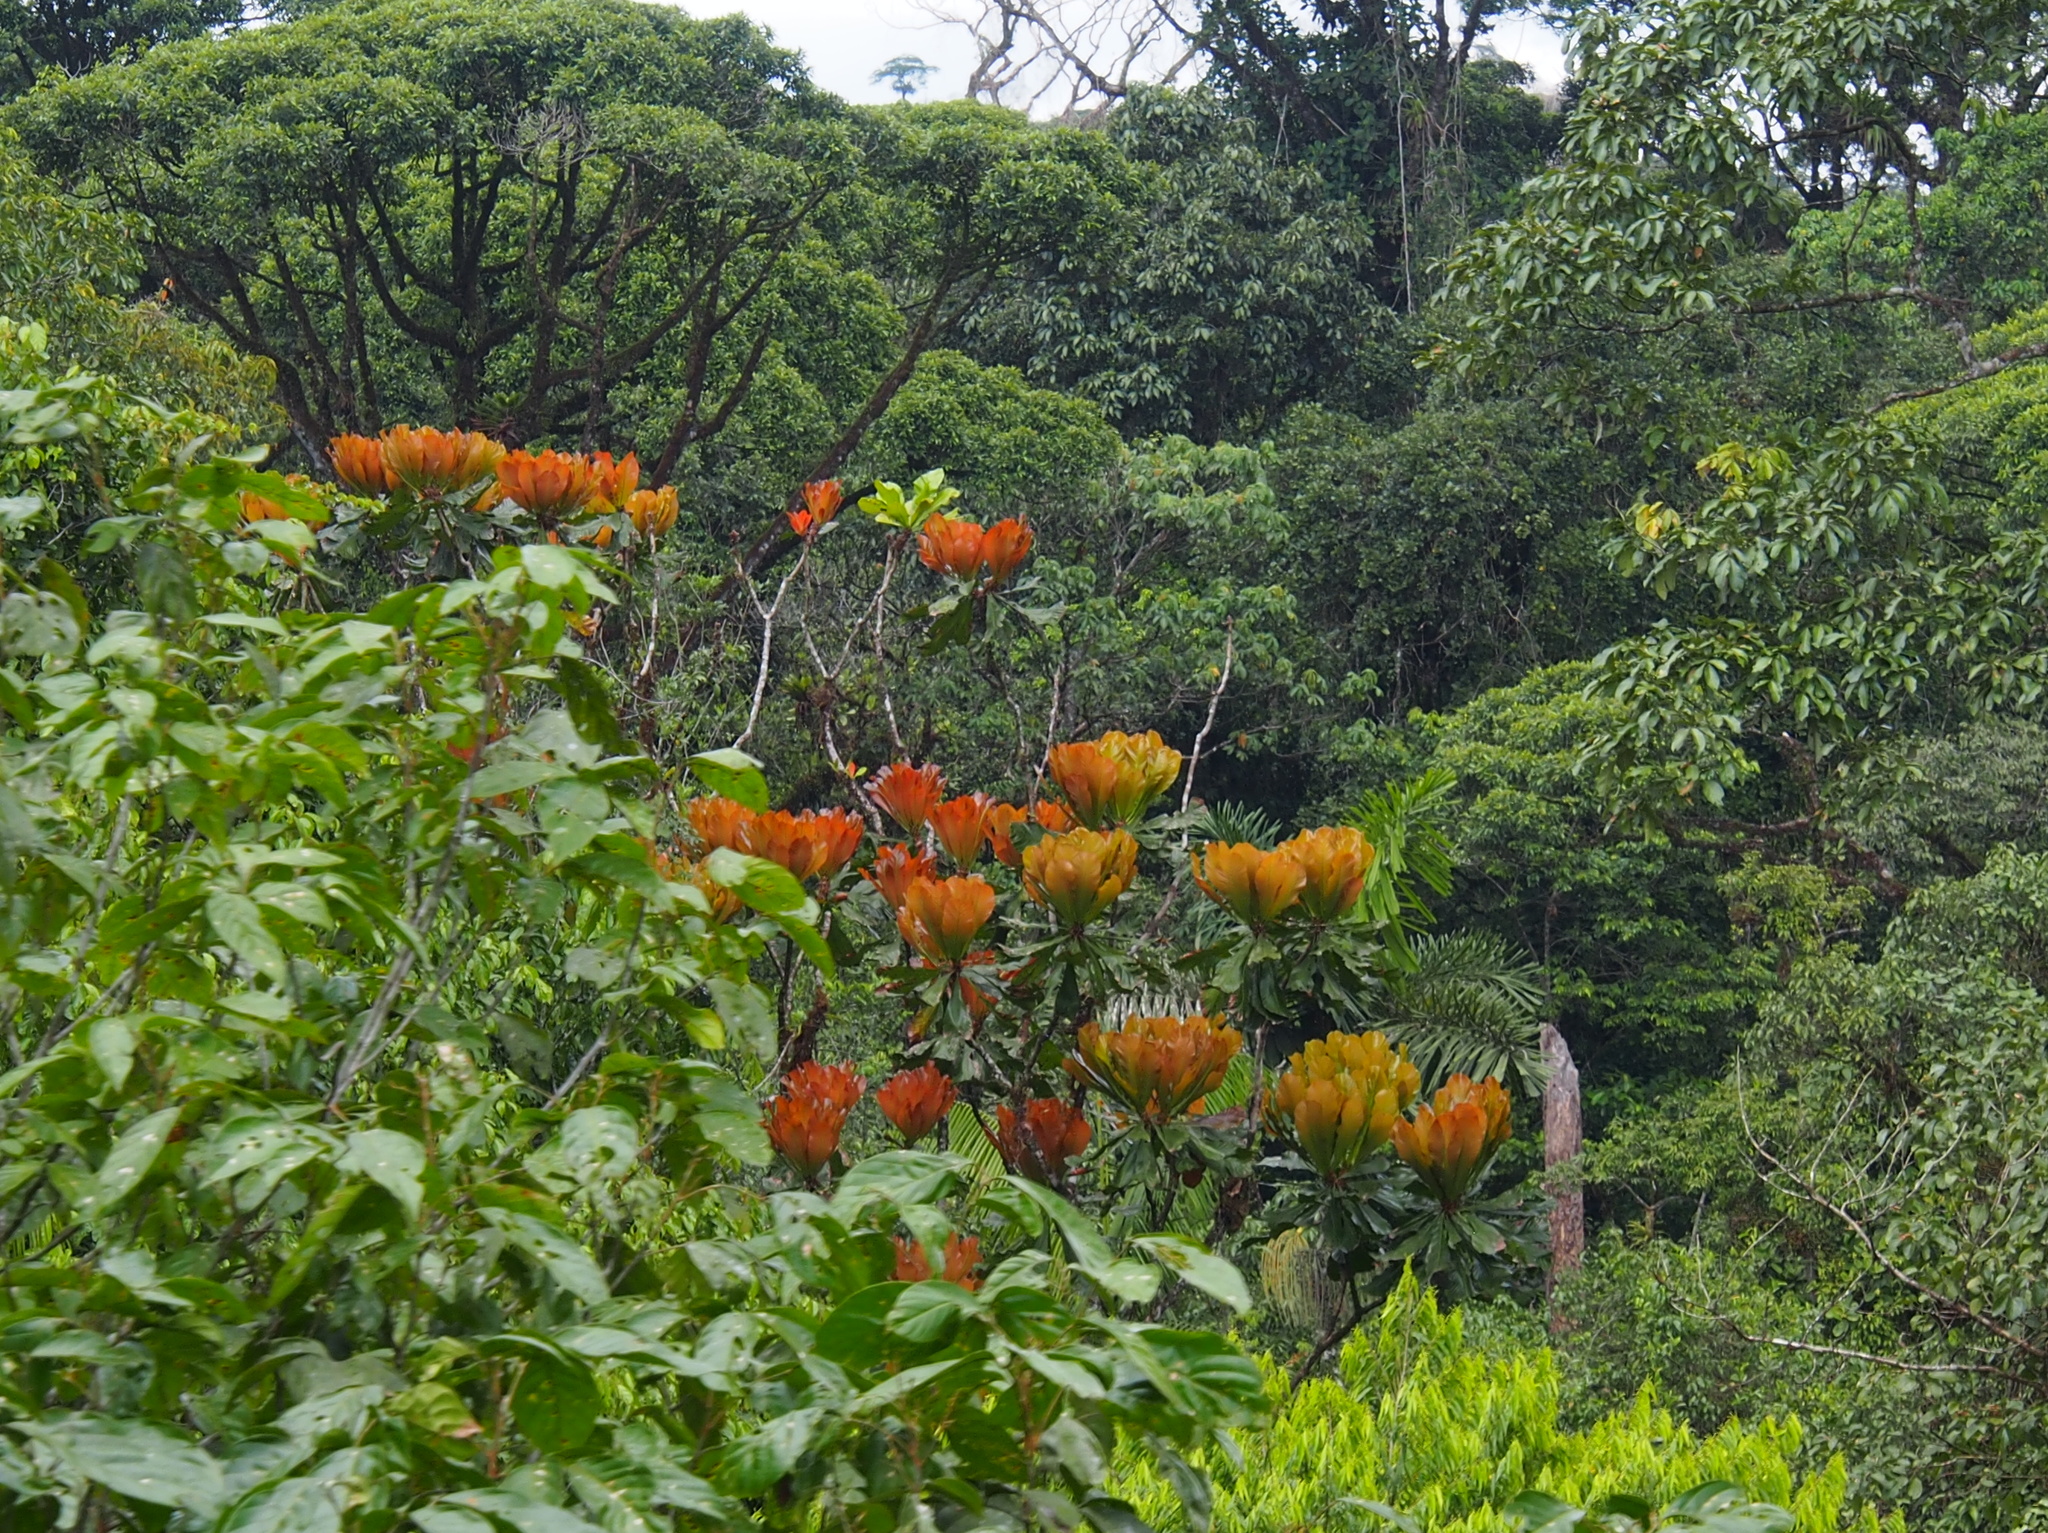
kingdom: Plantae
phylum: Tracheophyta
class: Magnoliopsida
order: Malpighiales
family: Ochnaceae
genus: Cespedesia
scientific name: Cespedesia spathulata
